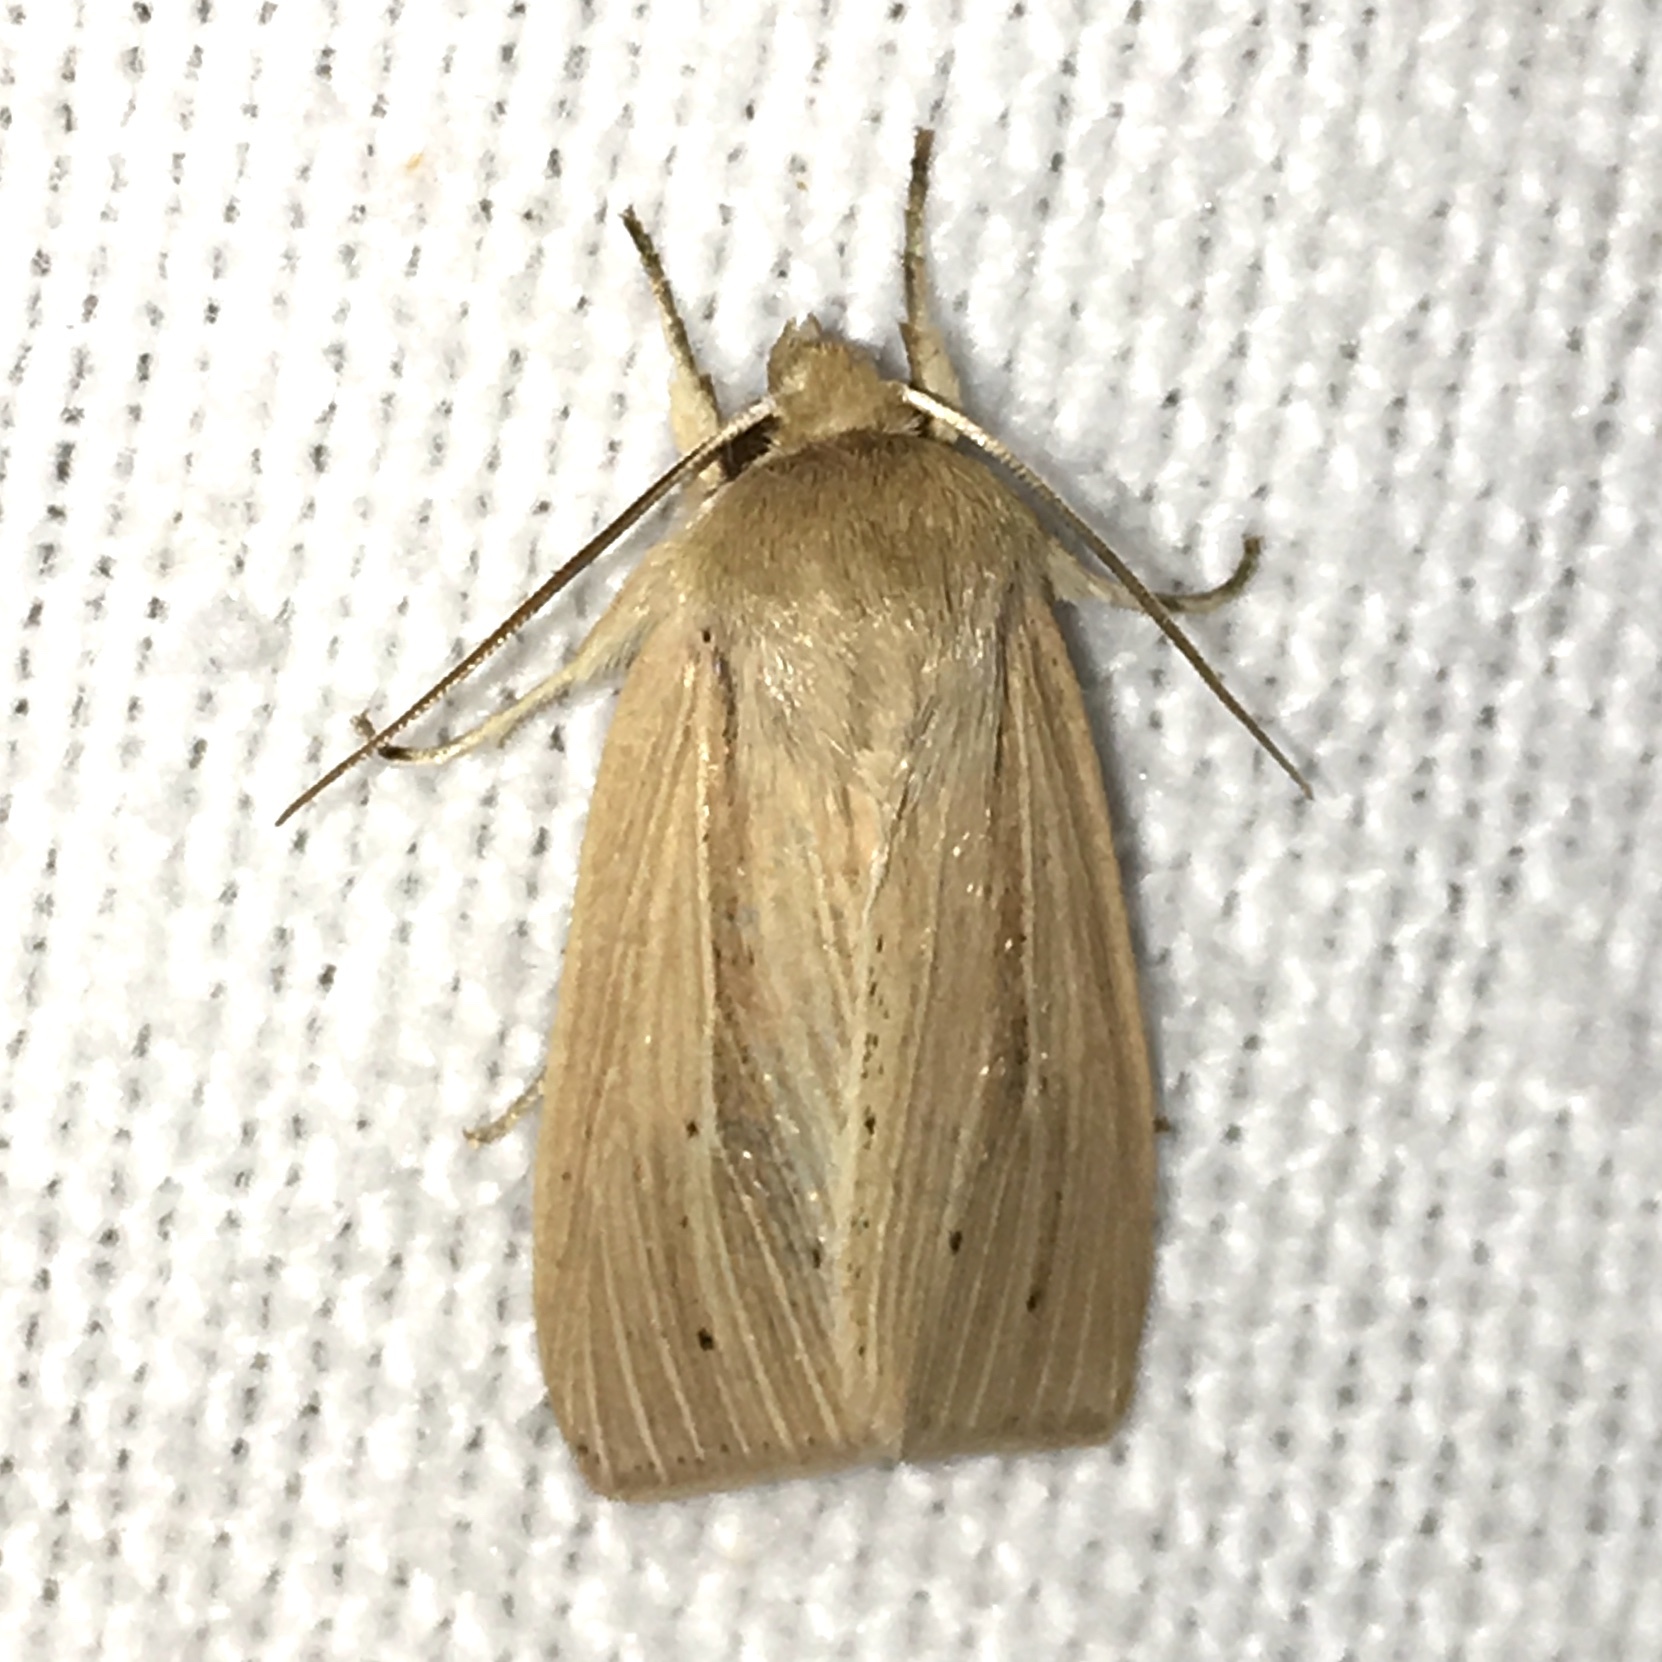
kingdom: Animalia
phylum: Arthropoda
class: Insecta
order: Lepidoptera
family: Noctuidae
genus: Mythimna
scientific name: Mythimna oxygala
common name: Lesser wainscot
